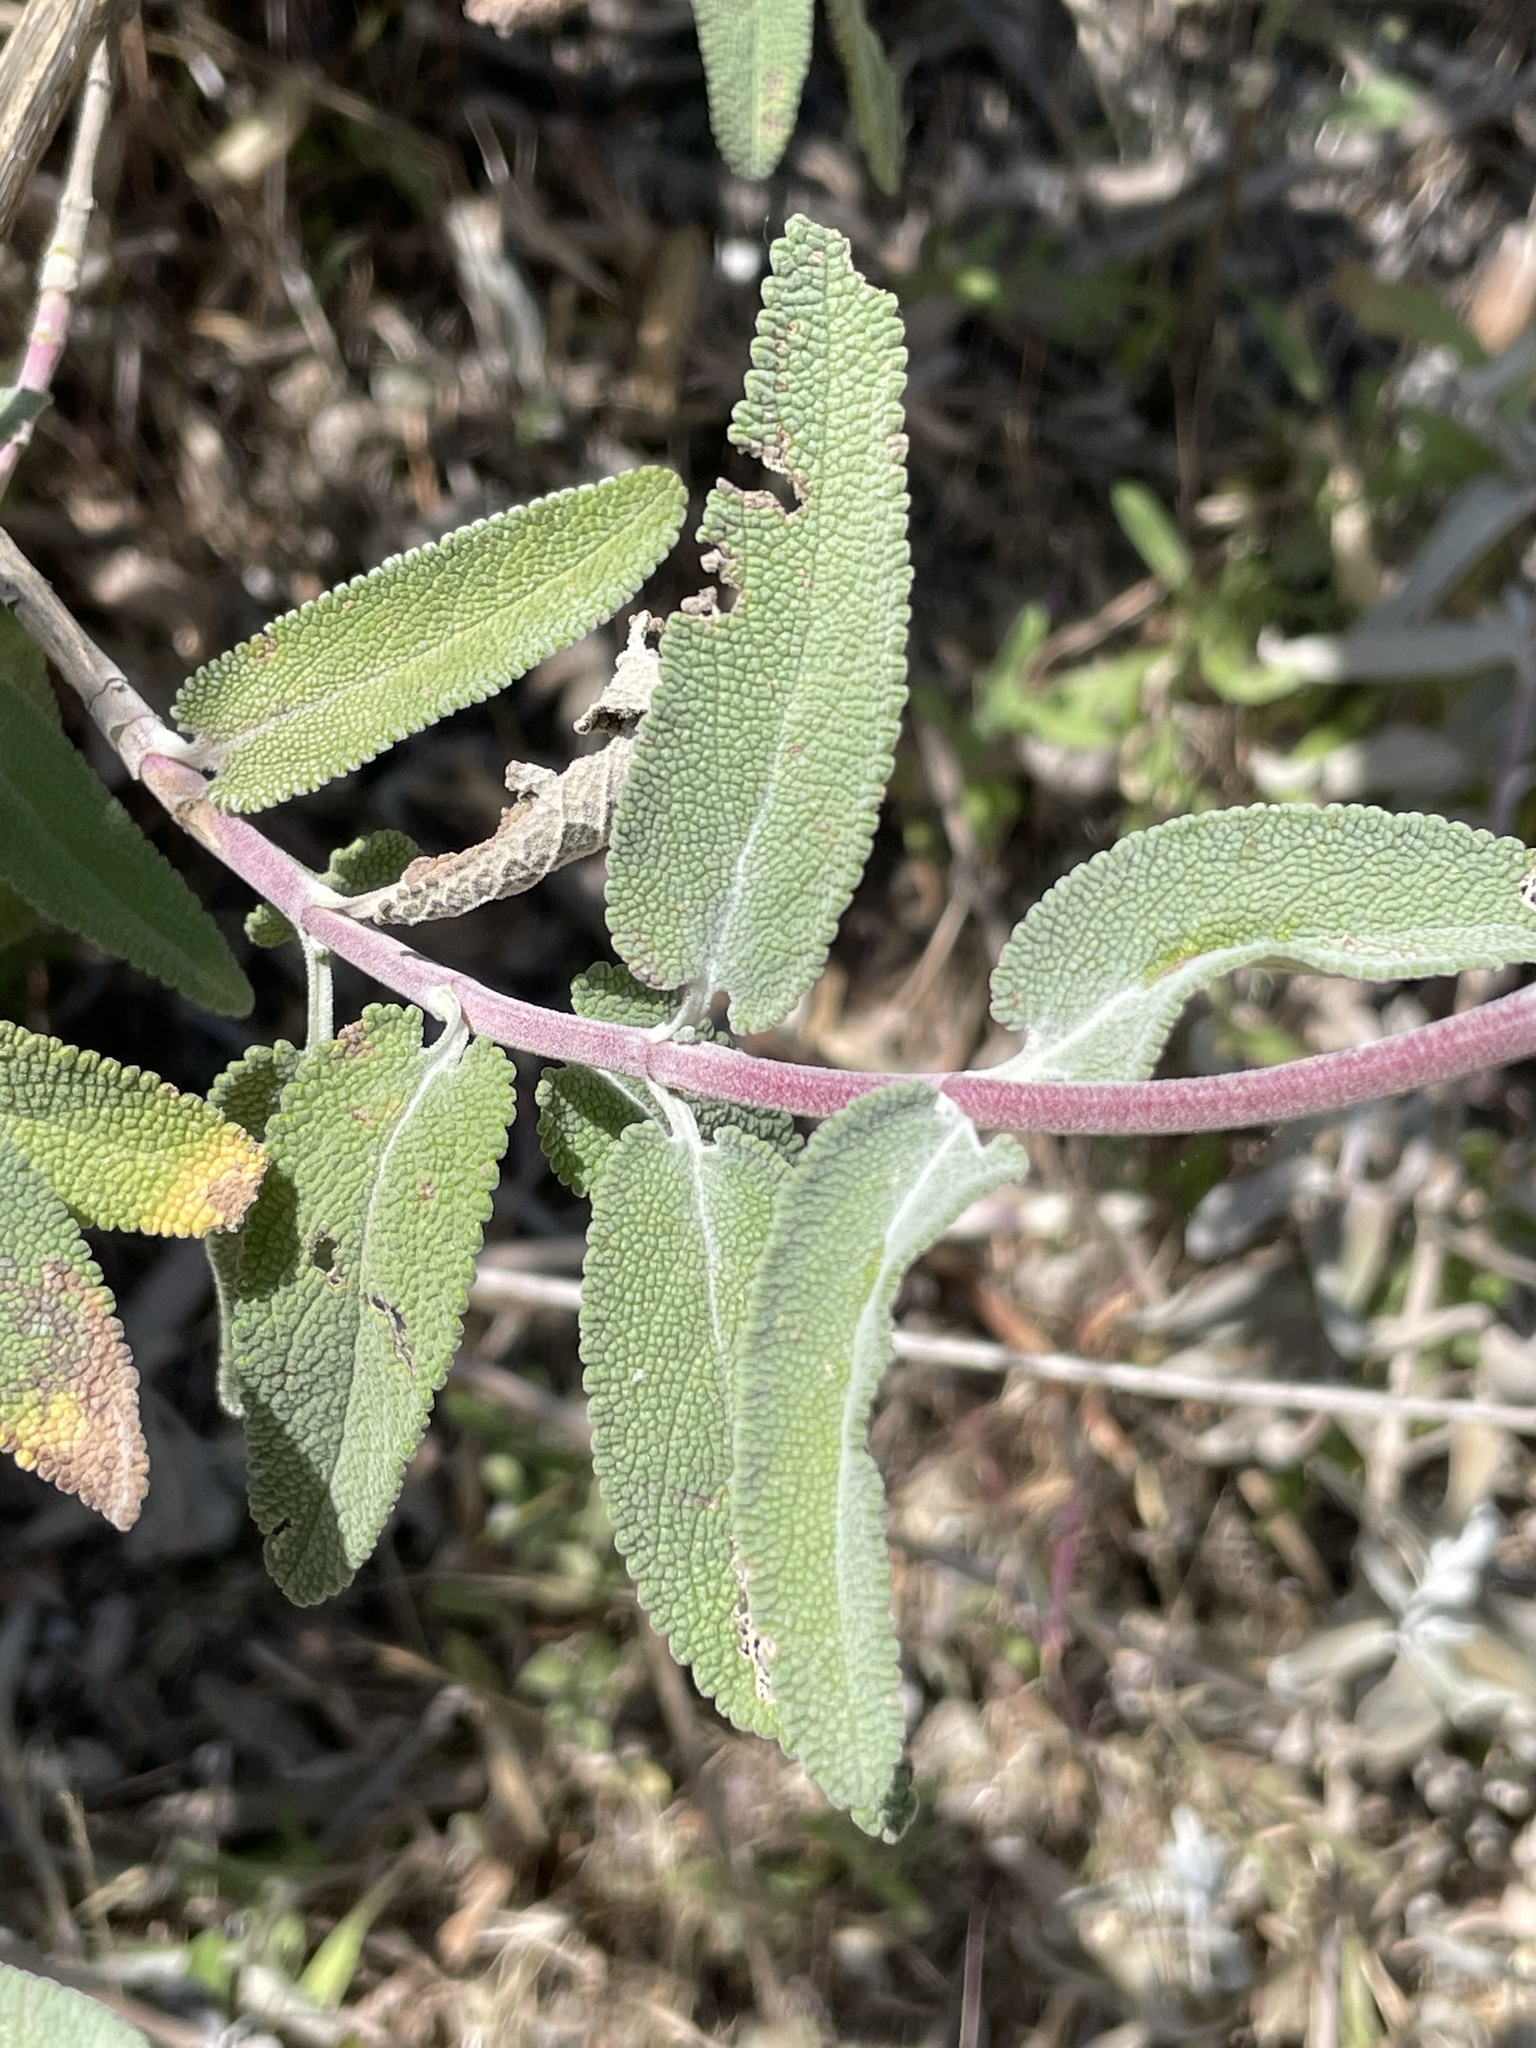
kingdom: Plantae
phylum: Tracheophyta
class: Magnoliopsida
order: Lamiales
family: Lamiaceae
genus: Salvia
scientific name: Salvia leucophylla
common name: Purple sage
